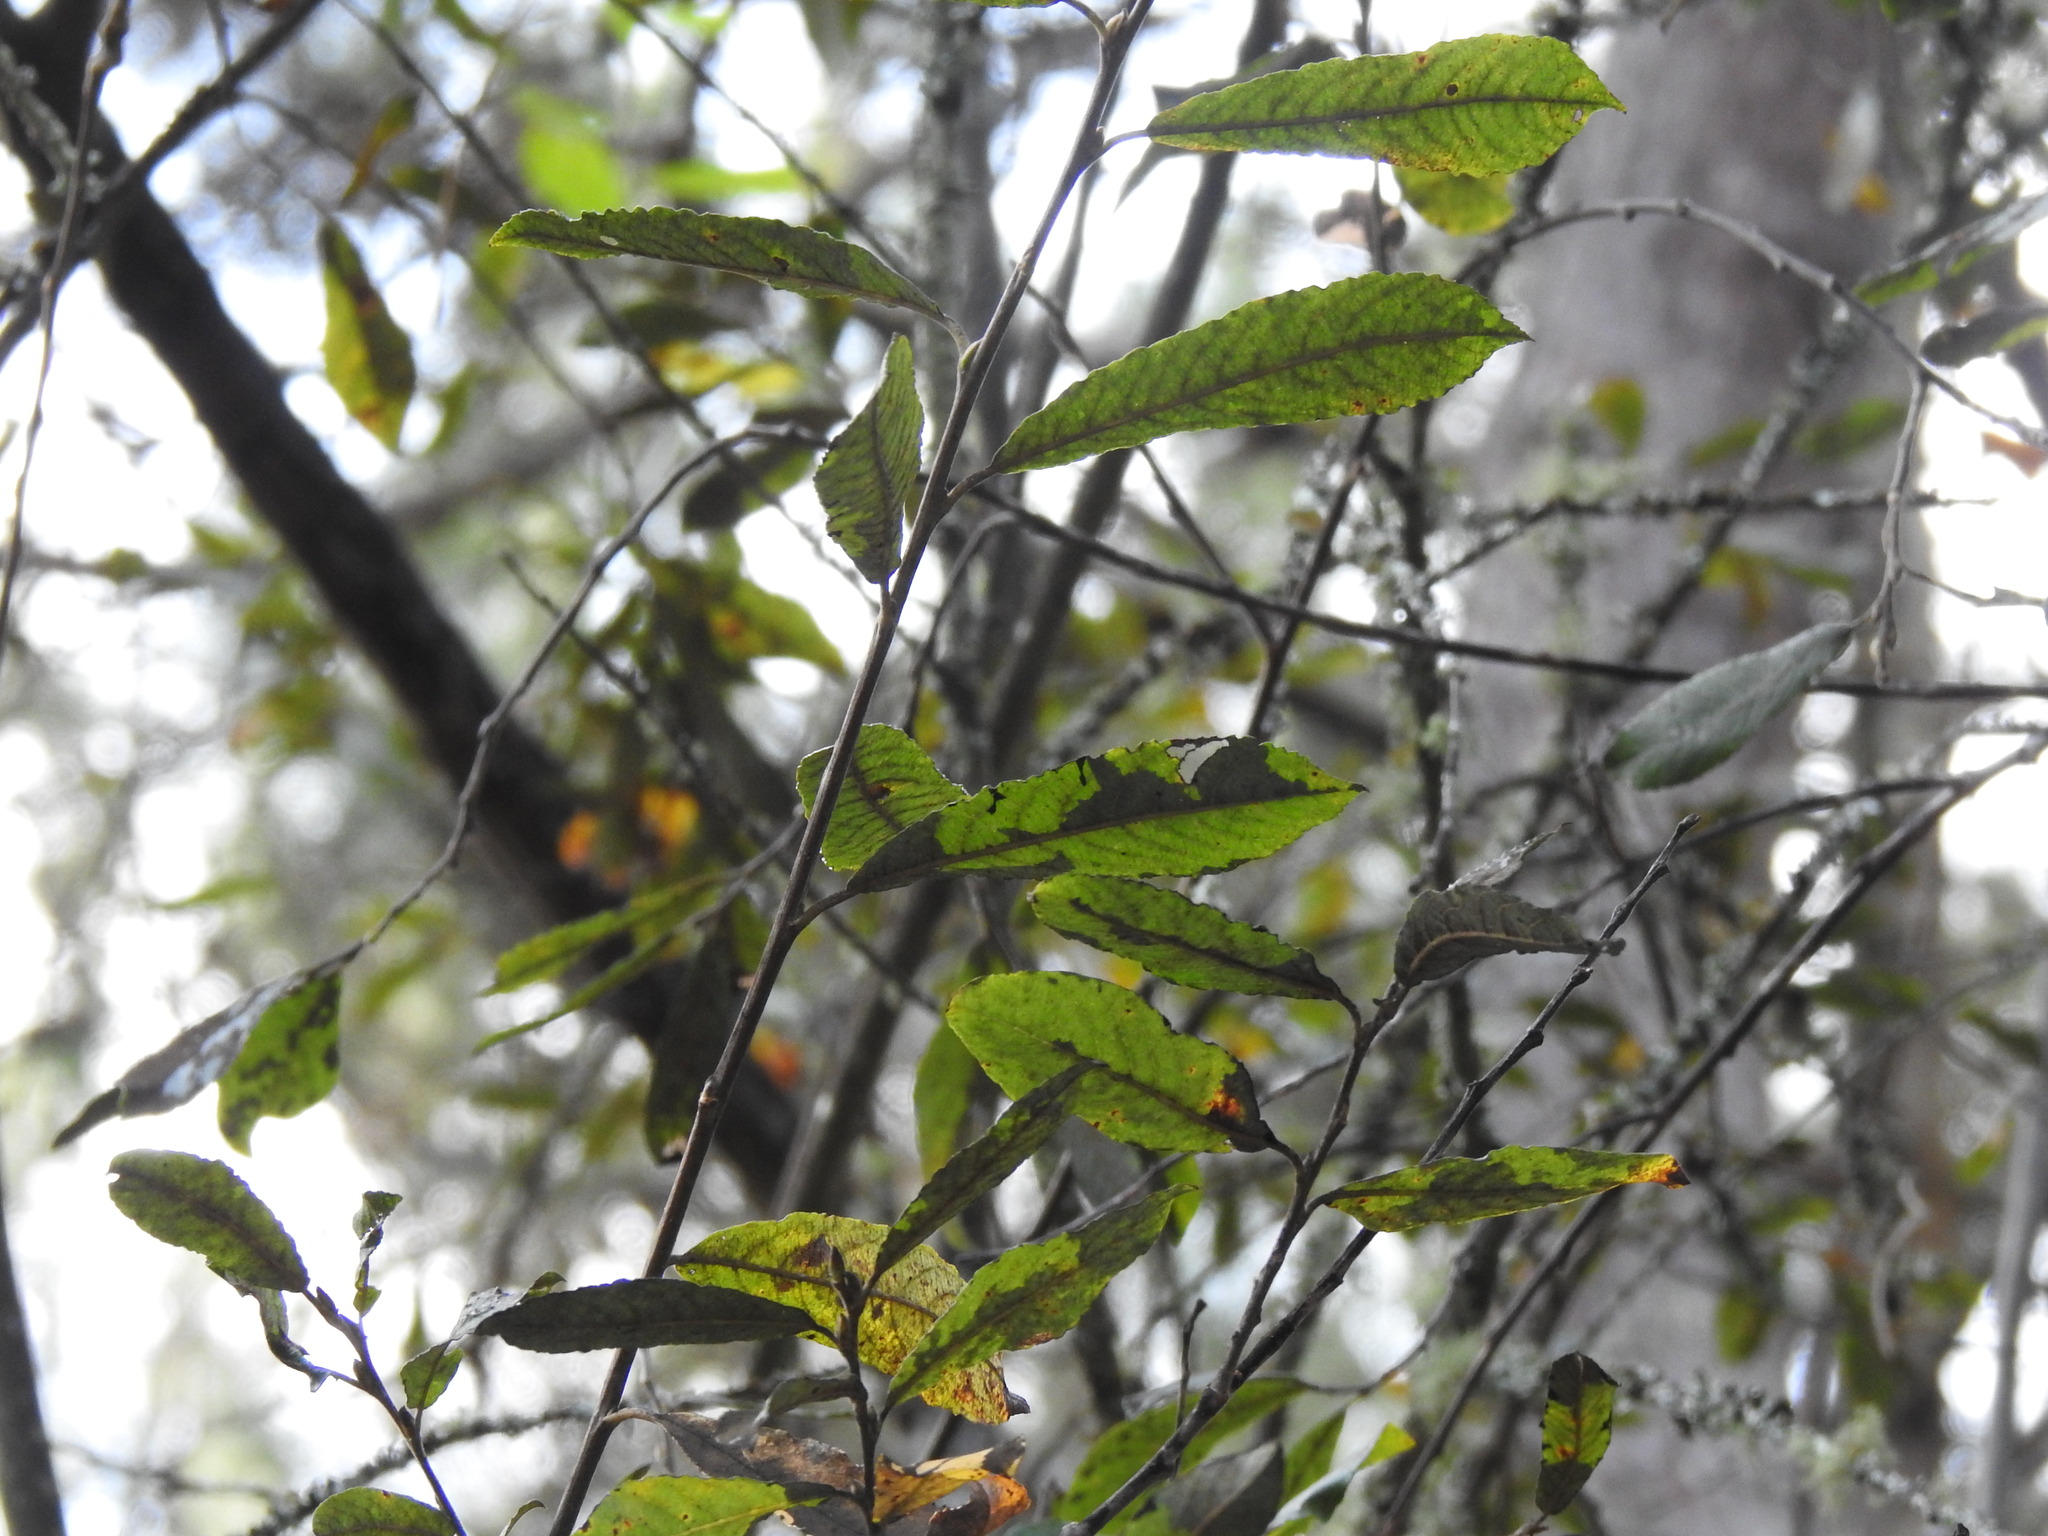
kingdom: Plantae
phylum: Tracheophyta
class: Magnoliopsida
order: Malpighiales
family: Salicaceae
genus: Salix
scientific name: Salix atrocinerea
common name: Rusty willow
